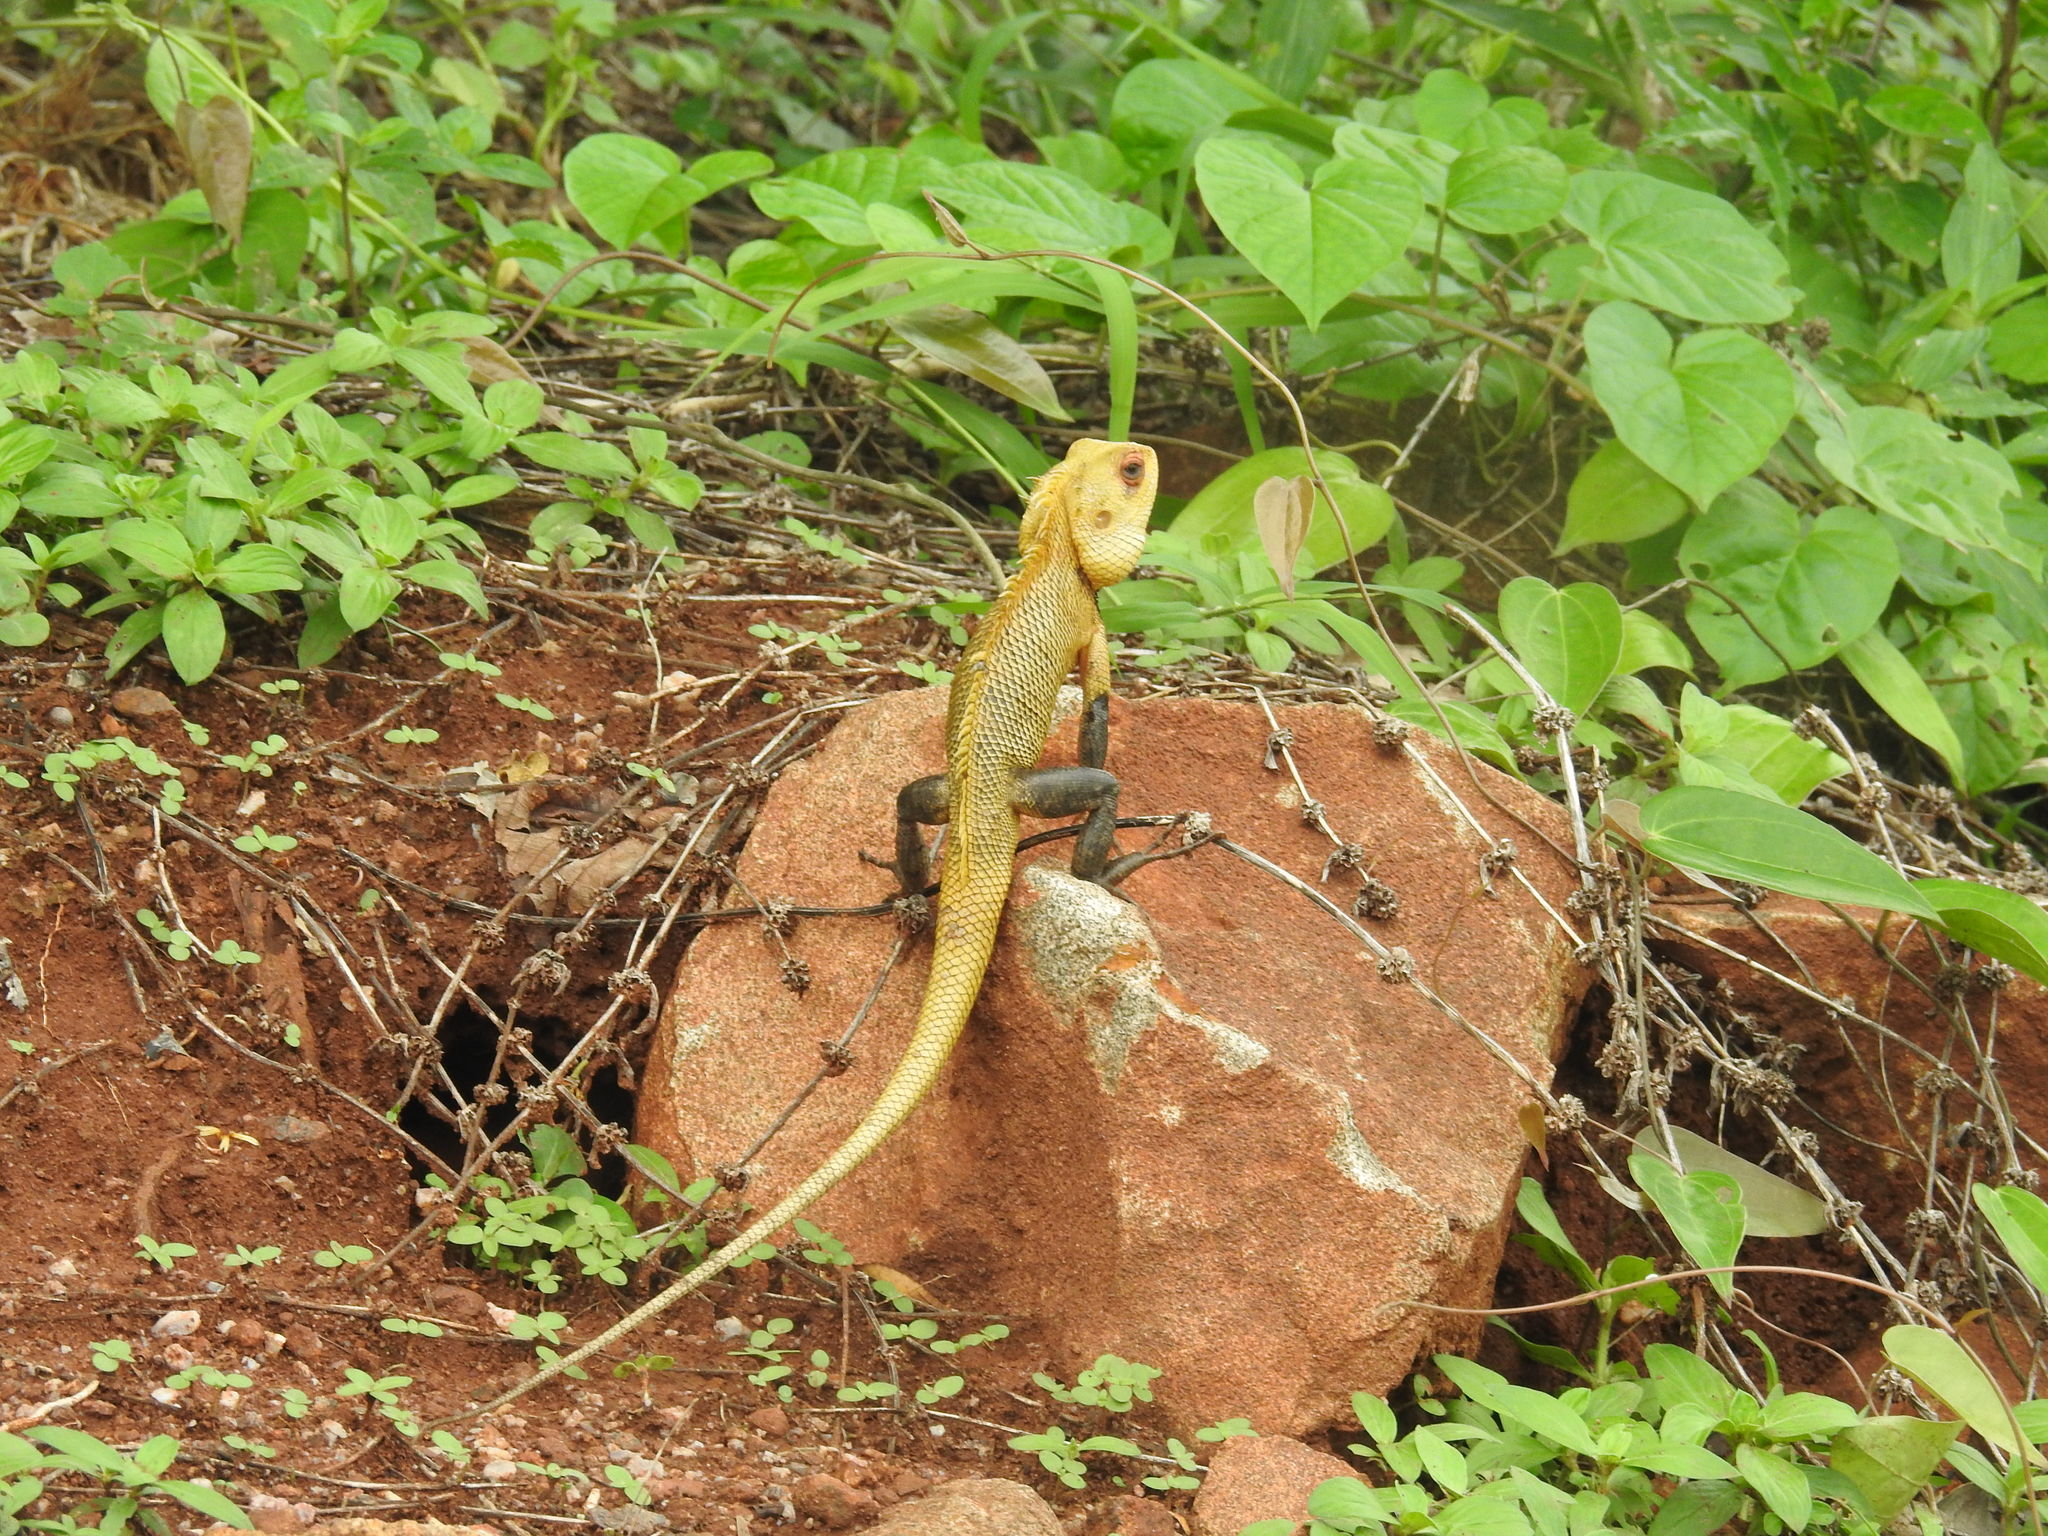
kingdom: Animalia
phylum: Chordata
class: Squamata
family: Agamidae
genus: Calotes
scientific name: Calotes versicolor
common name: Oriental garden lizard
